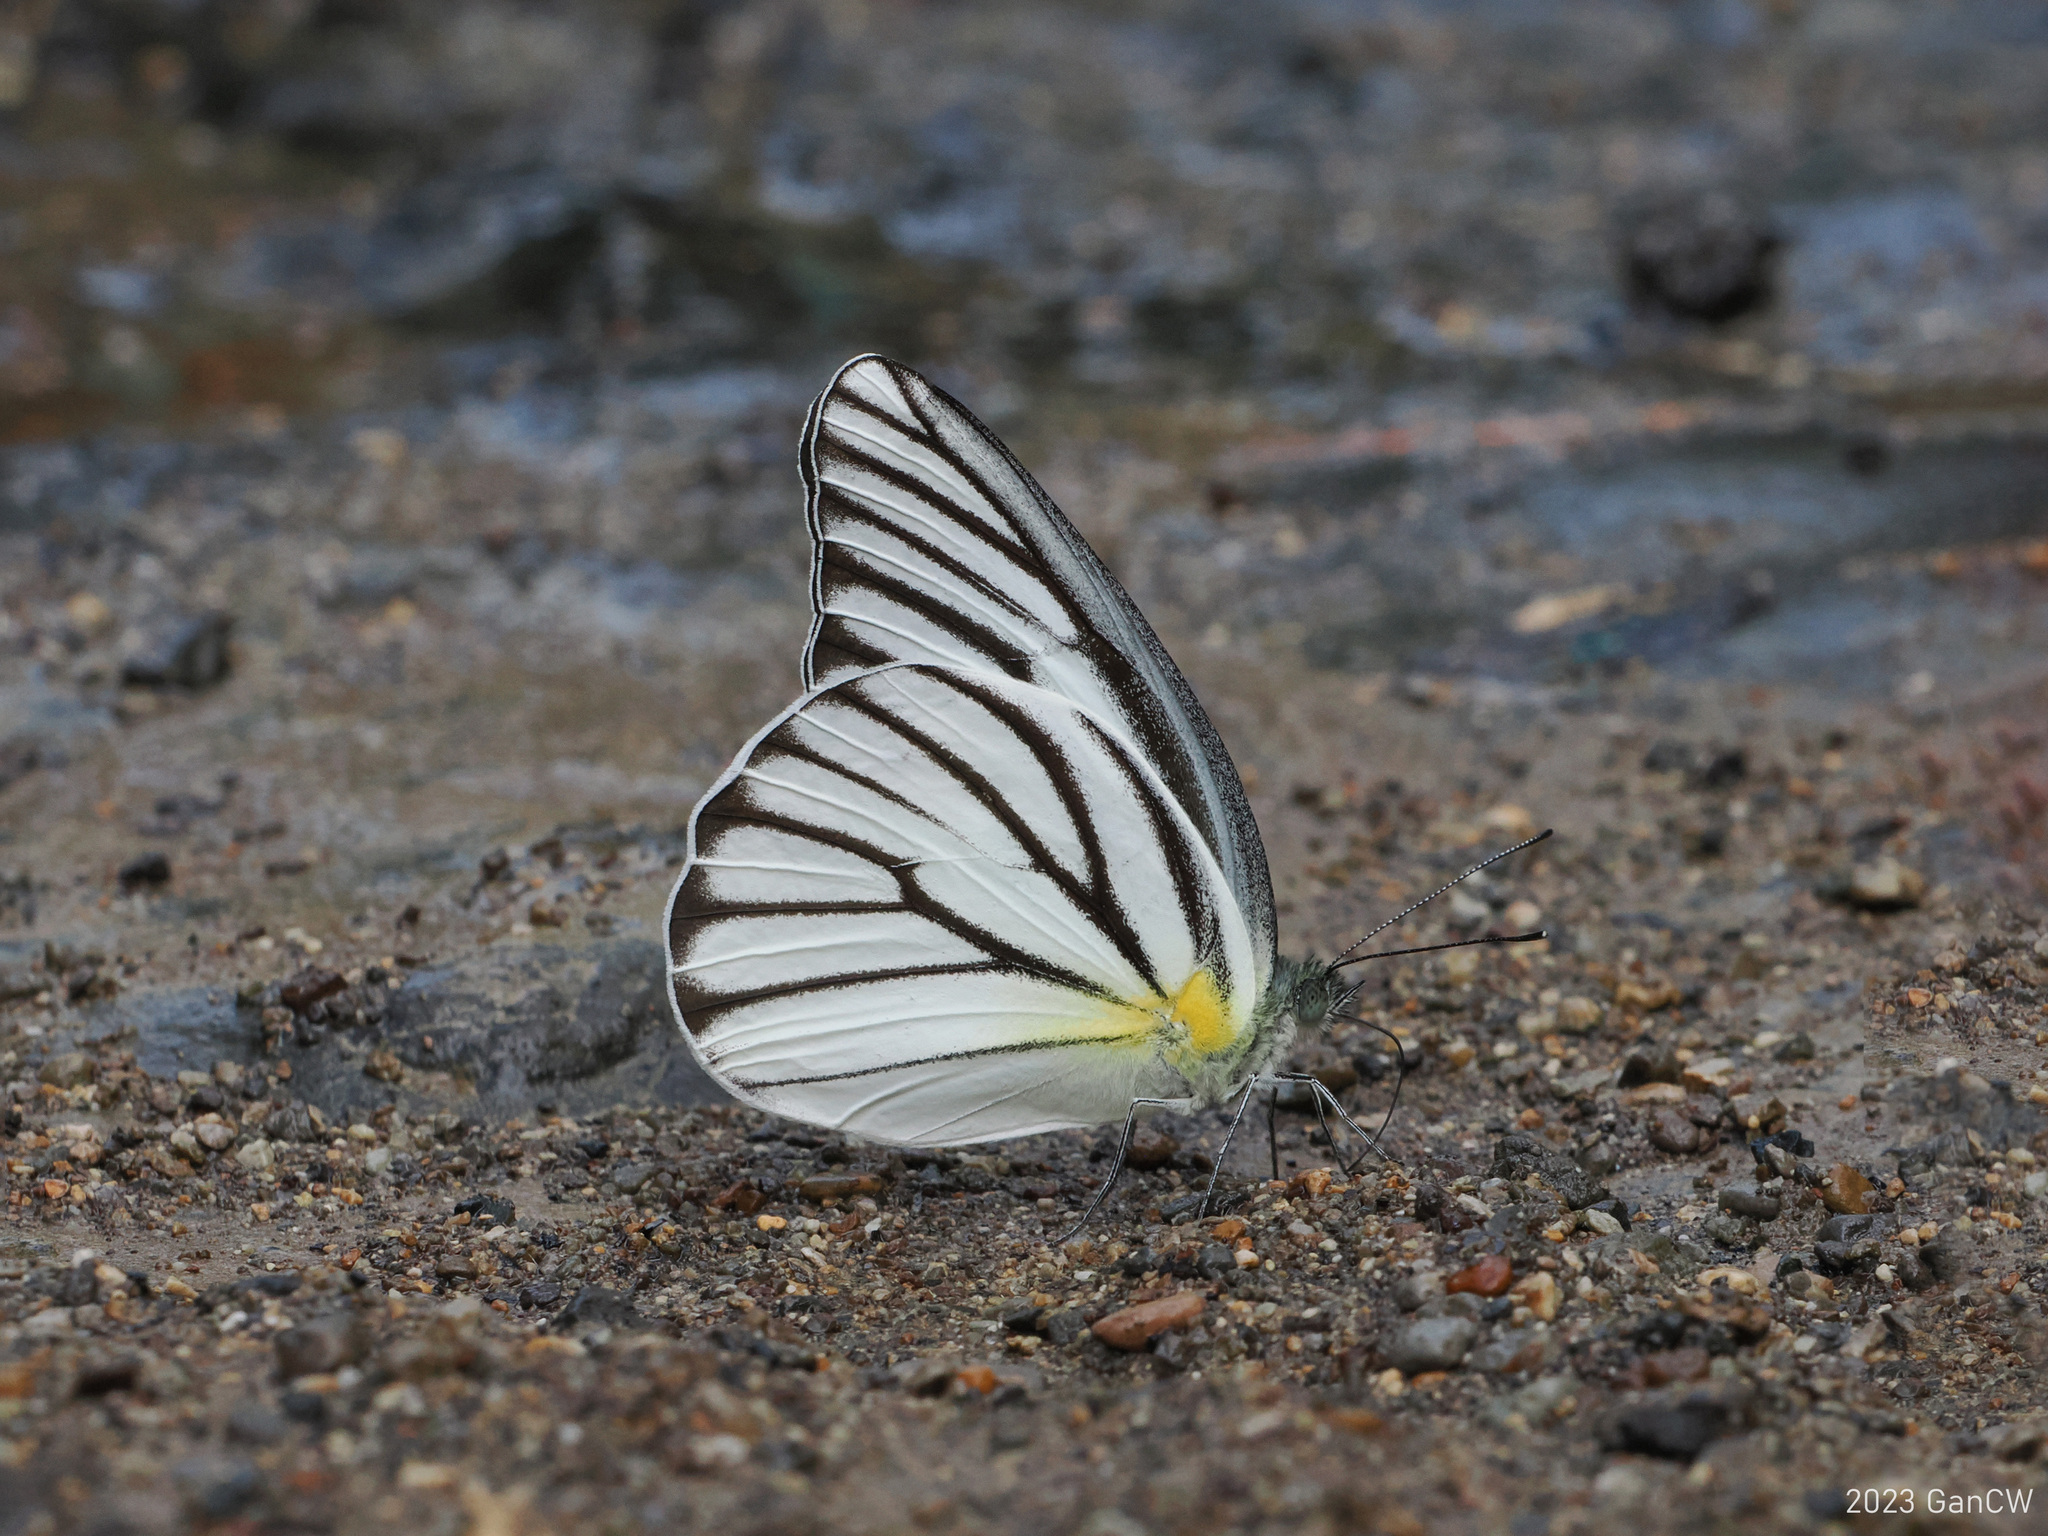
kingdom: Animalia
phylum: Arthropoda
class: Insecta
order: Lepidoptera
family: Pieridae
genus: Appias
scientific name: Appias hombroni
